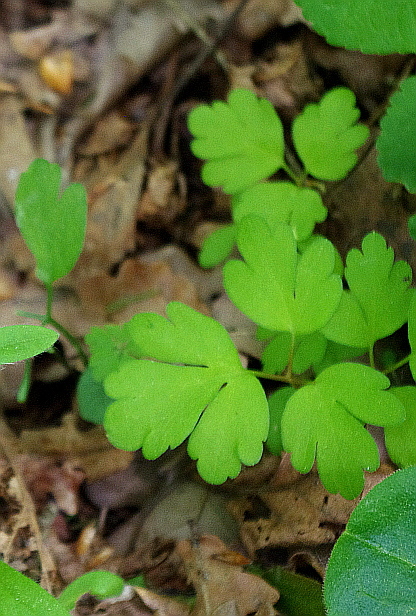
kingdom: Plantae
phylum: Tracheophyta
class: Magnoliopsida
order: Dipsacales
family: Viburnaceae
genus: Adoxa
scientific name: Adoxa moschatellina
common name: Moschatel
